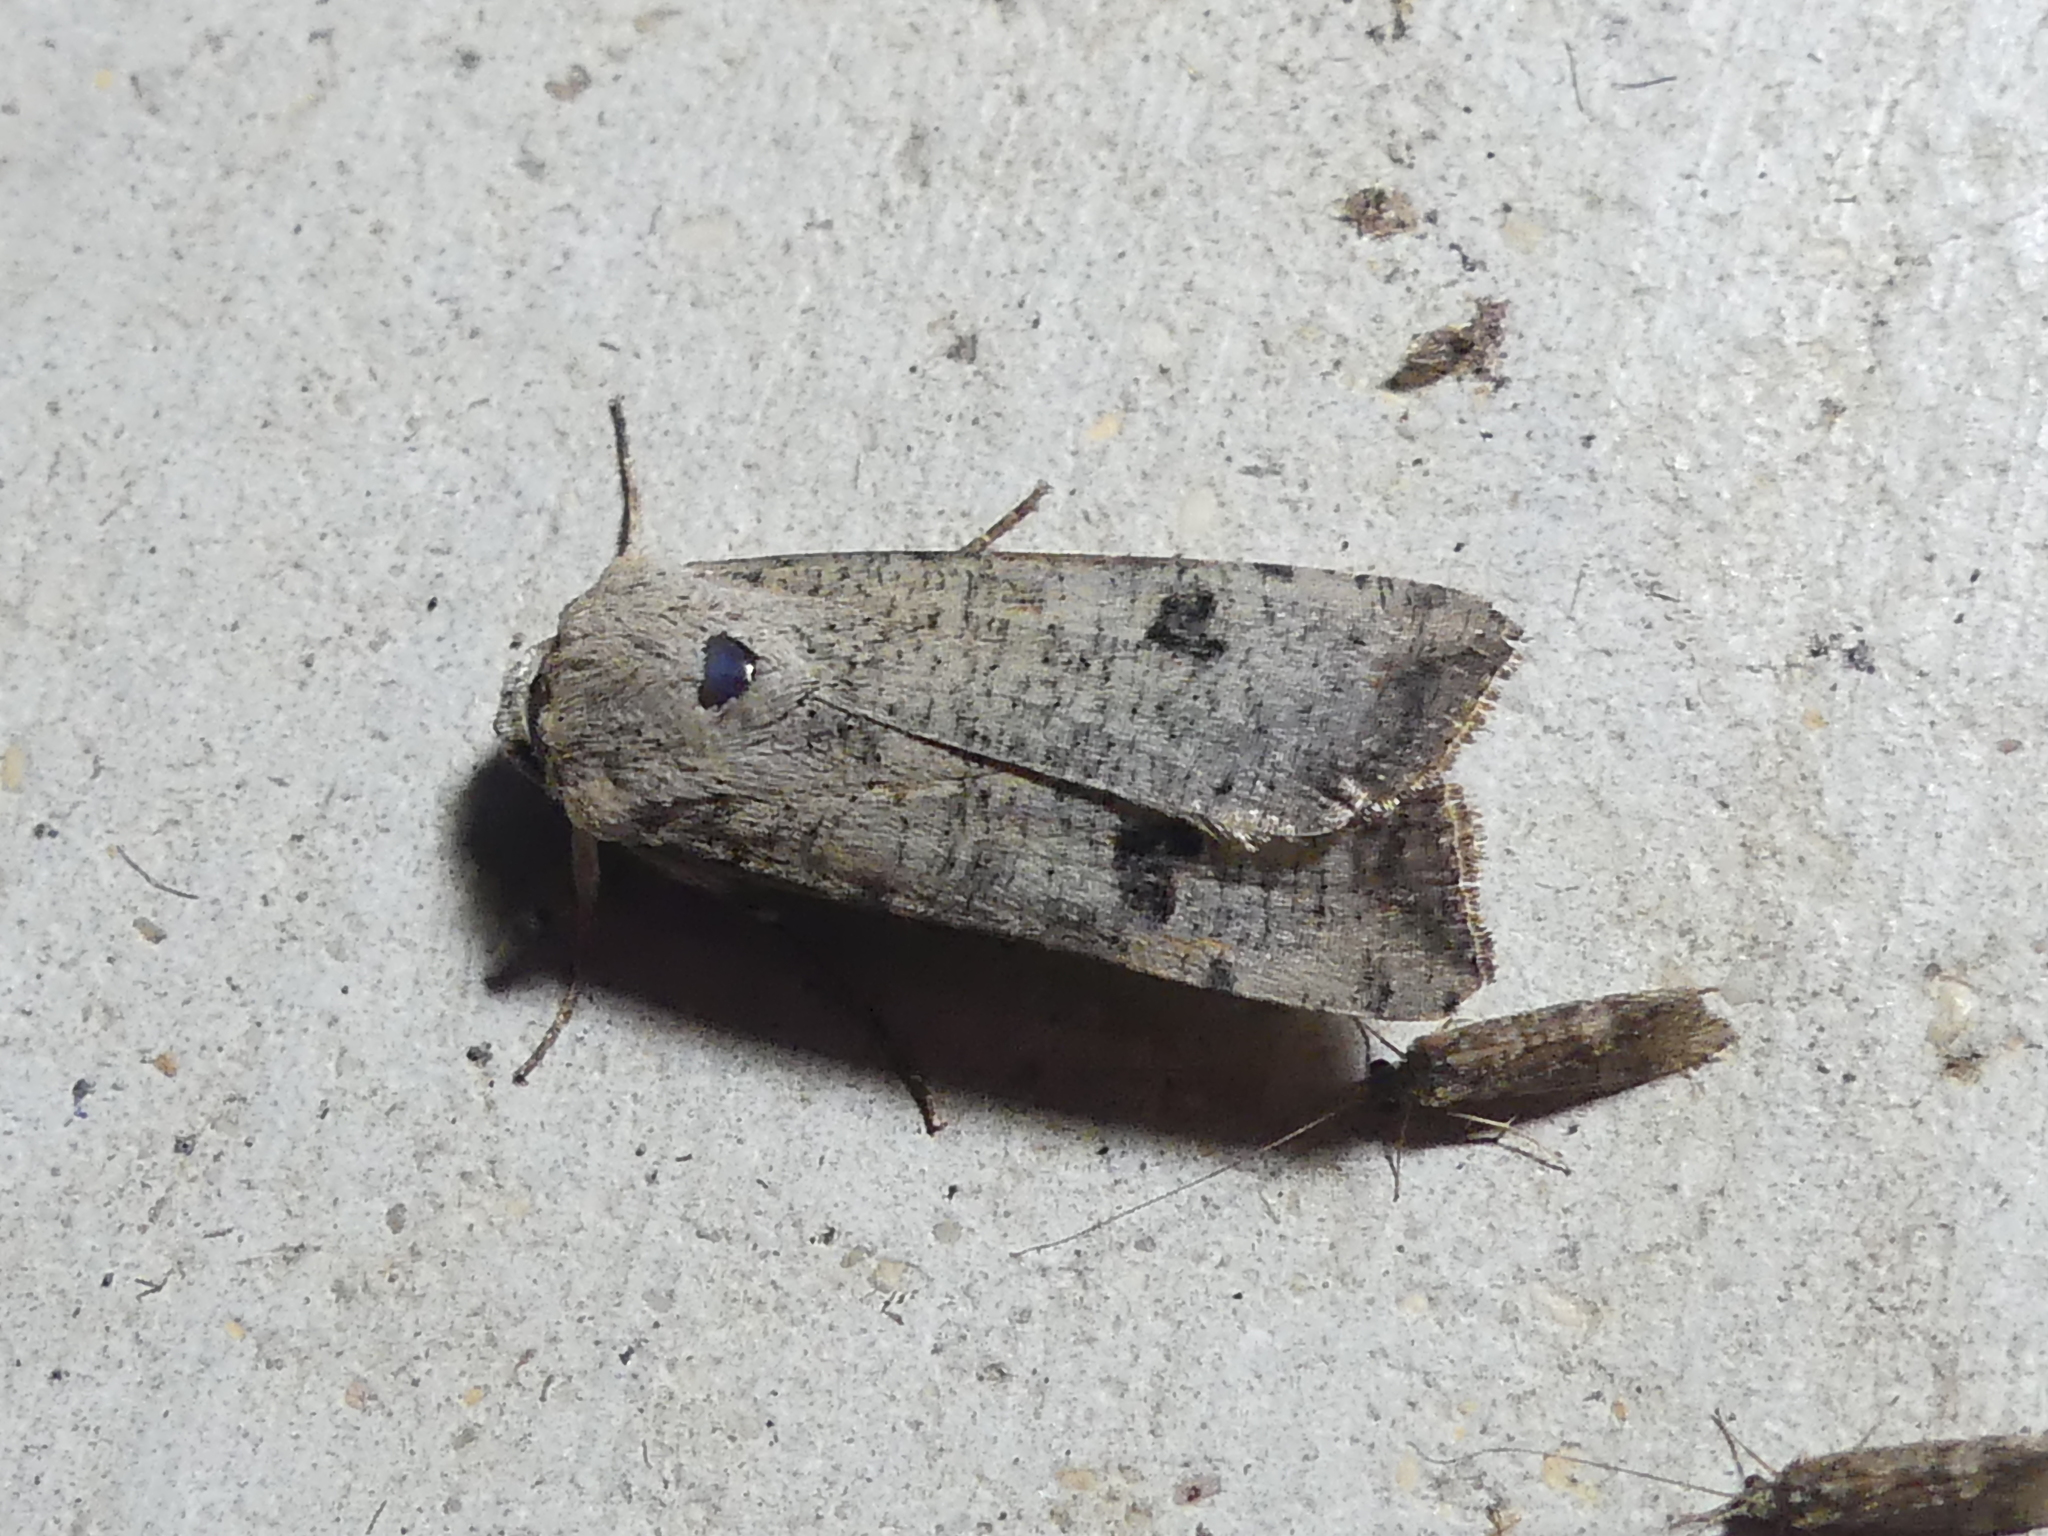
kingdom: Animalia
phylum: Arthropoda
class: Insecta
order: Lepidoptera
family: Noctuidae
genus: Anicla
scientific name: Anicla infecta
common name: Green cutworm
